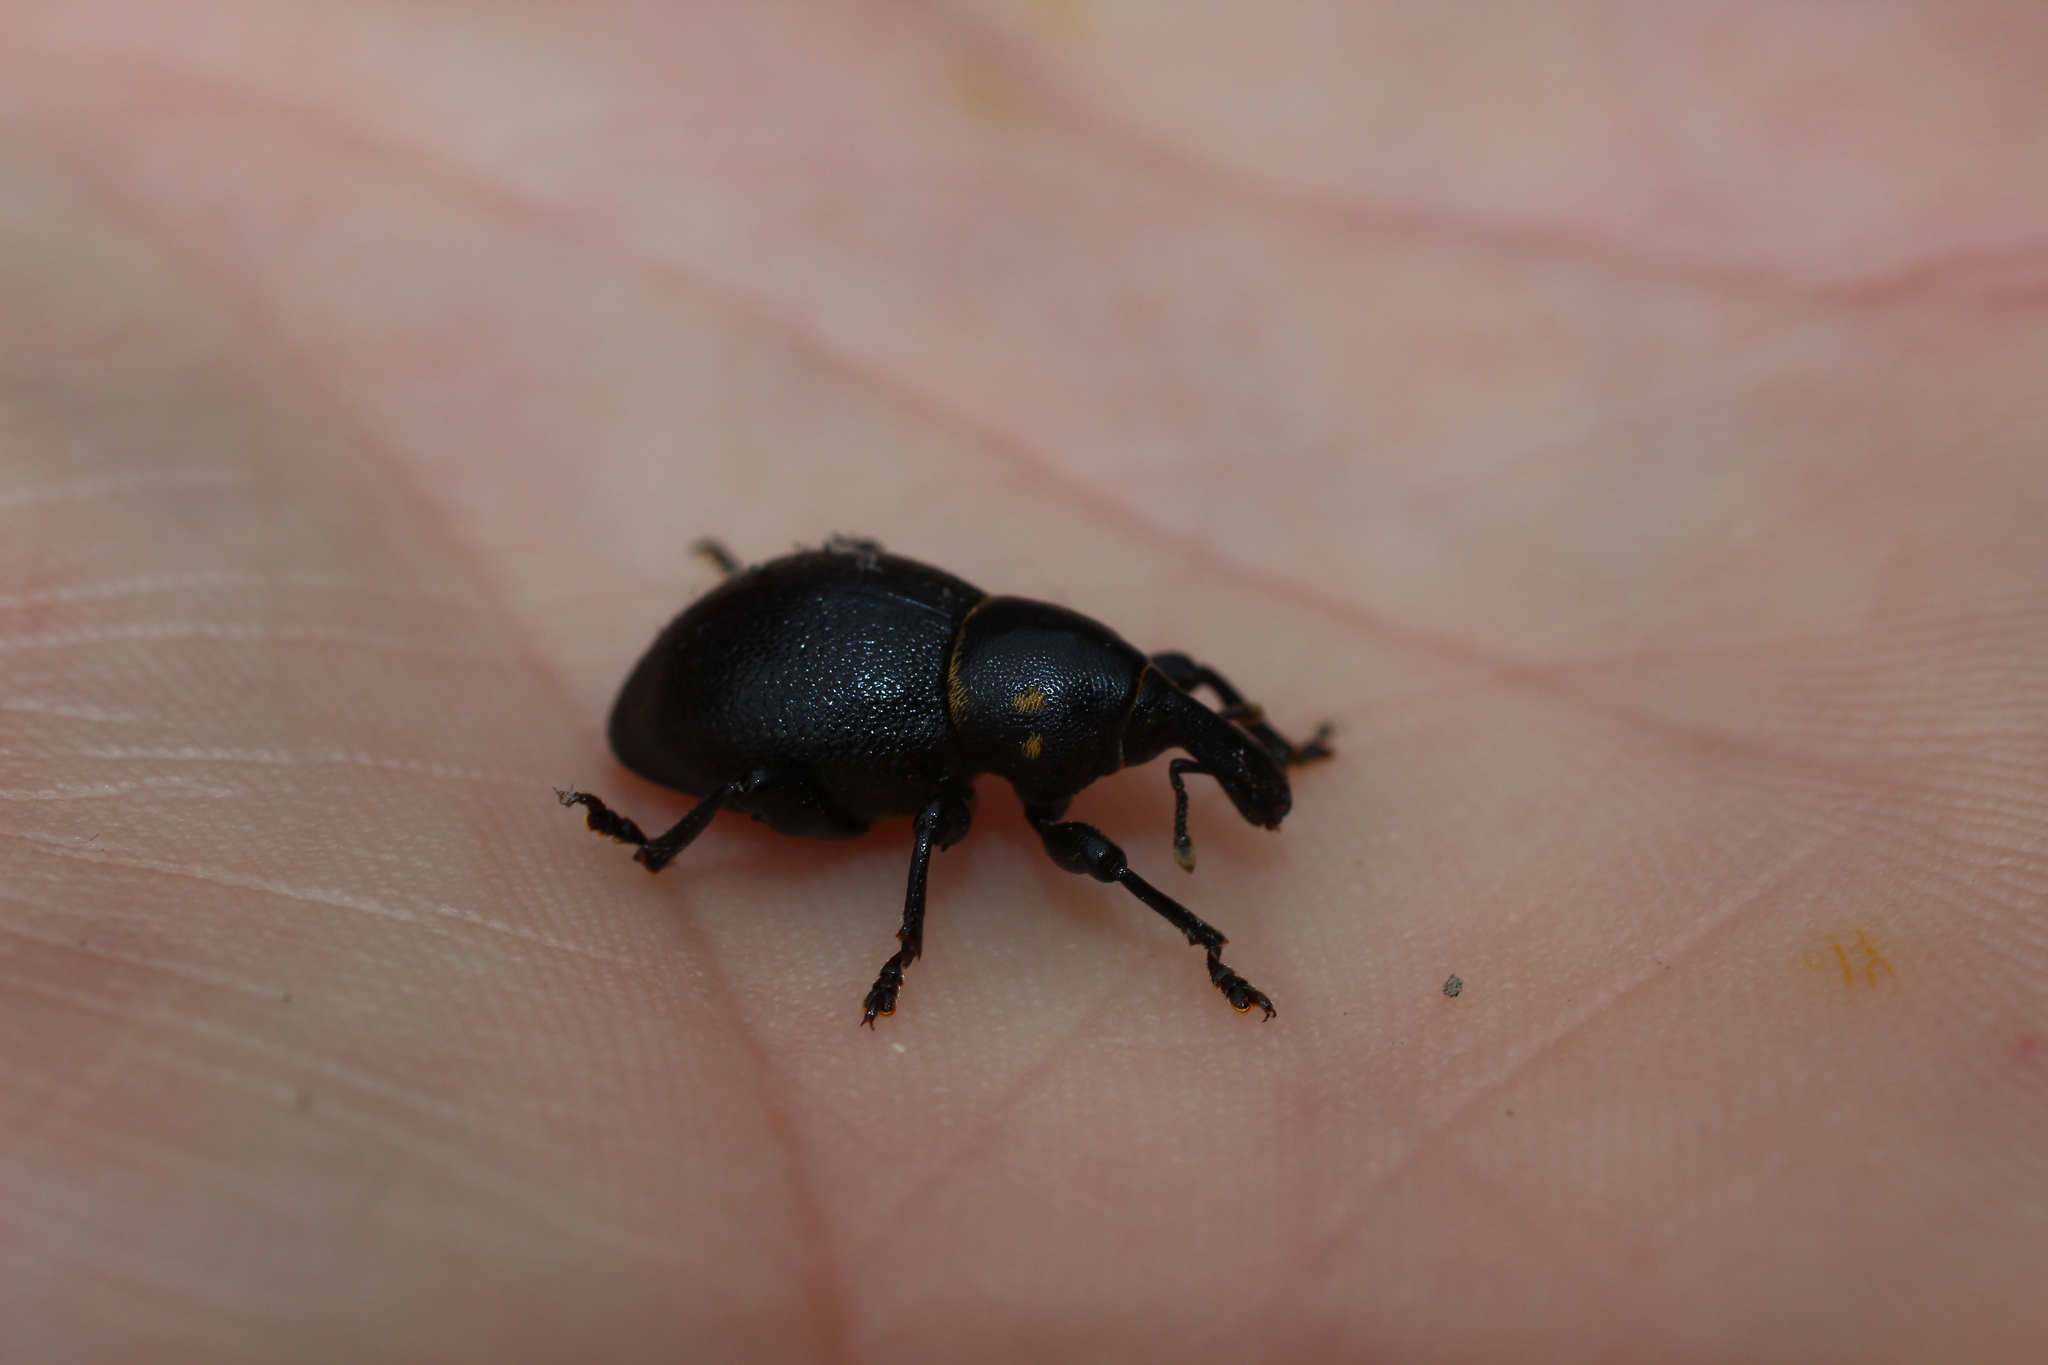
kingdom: Animalia
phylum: Arthropoda
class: Insecta
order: Coleoptera
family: Curculionidae
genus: Liparus
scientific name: Liparus coronatus
